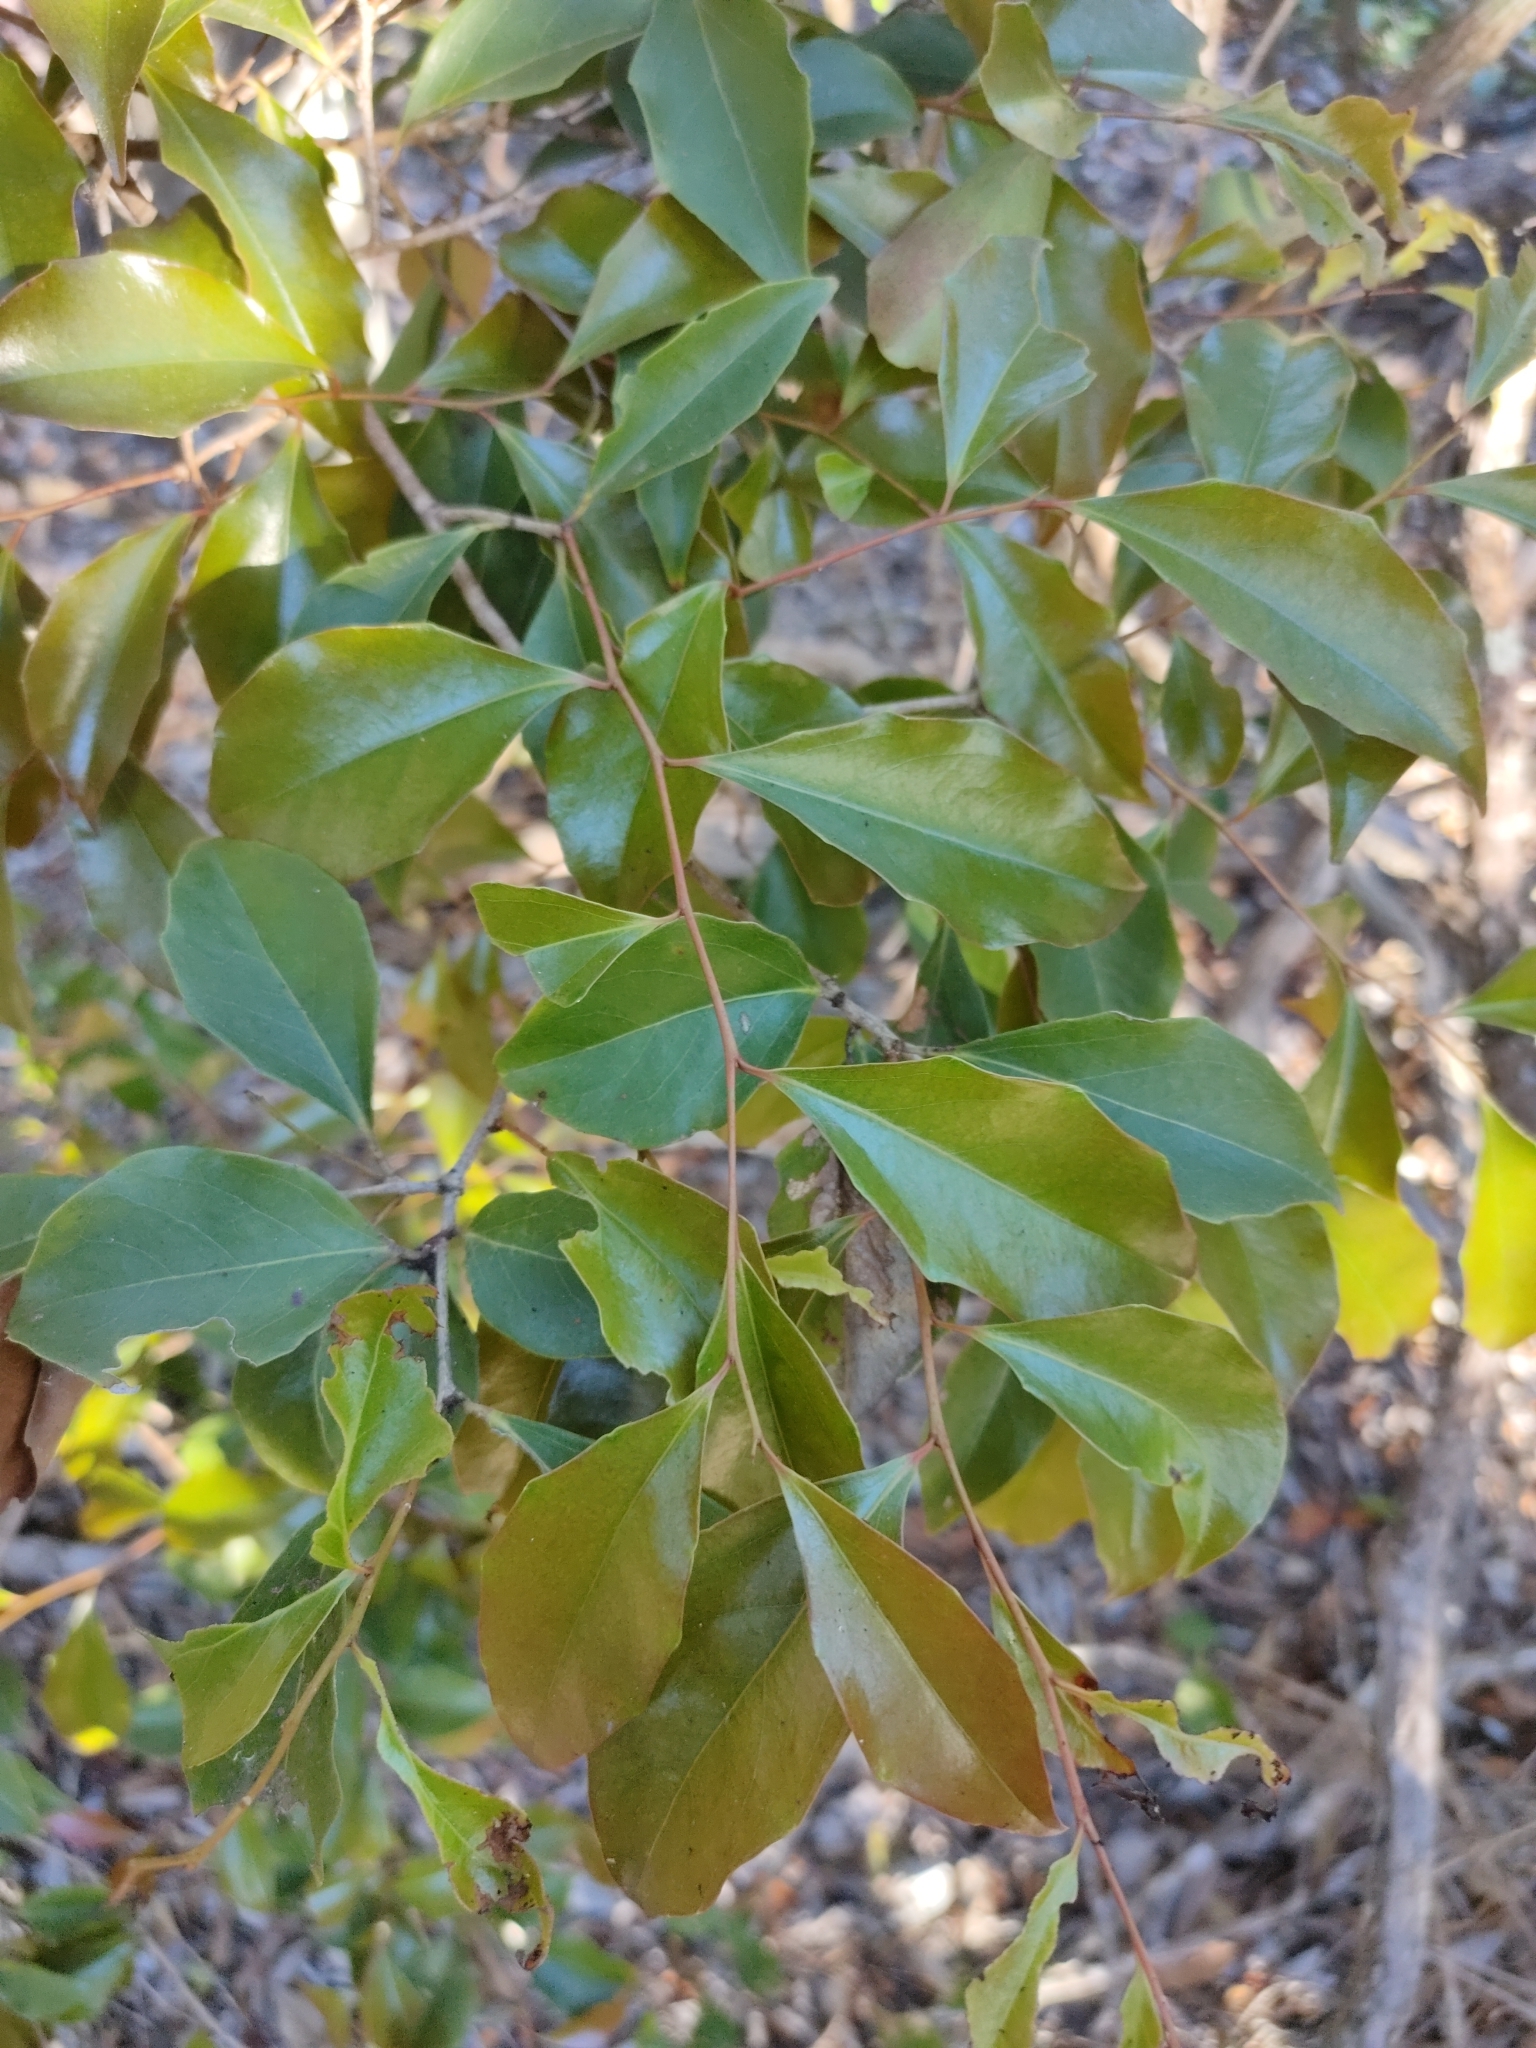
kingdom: Plantae
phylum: Tracheophyta
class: Magnoliopsida
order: Malpighiales
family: Salicaceae
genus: Scolopia
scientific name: Scolopia braunii
